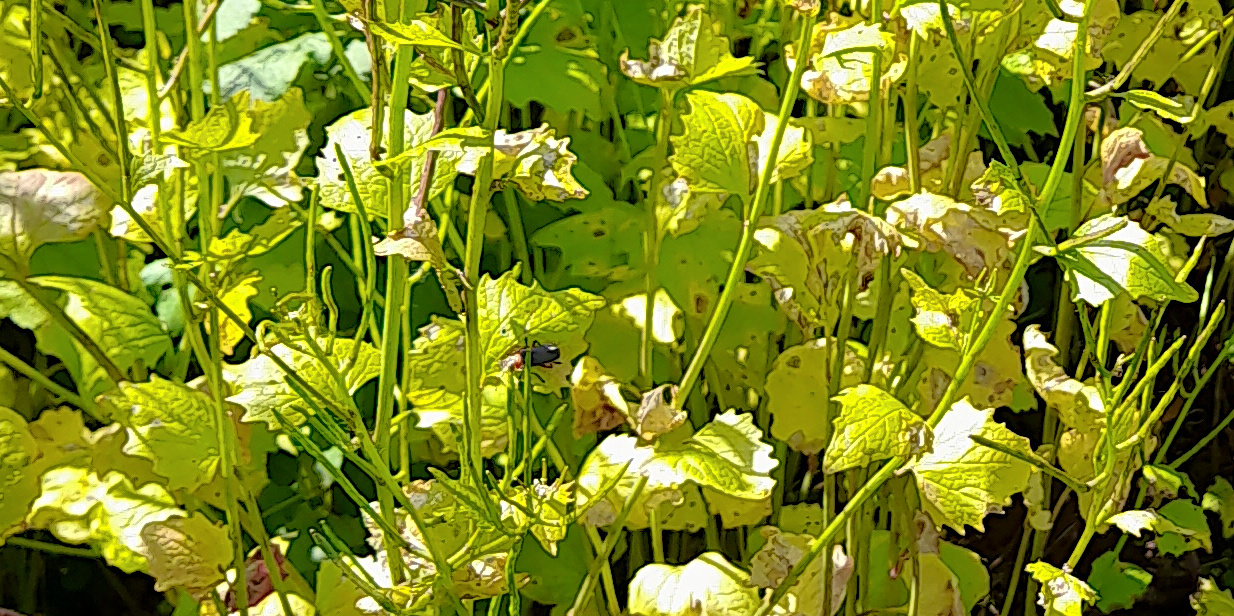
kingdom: Plantae
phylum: Tracheophyta
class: Magnoliopsida
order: Brassicales
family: Brassicaceae
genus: Alliaria
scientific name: Alliaria petiolata
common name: Garlic mustard
